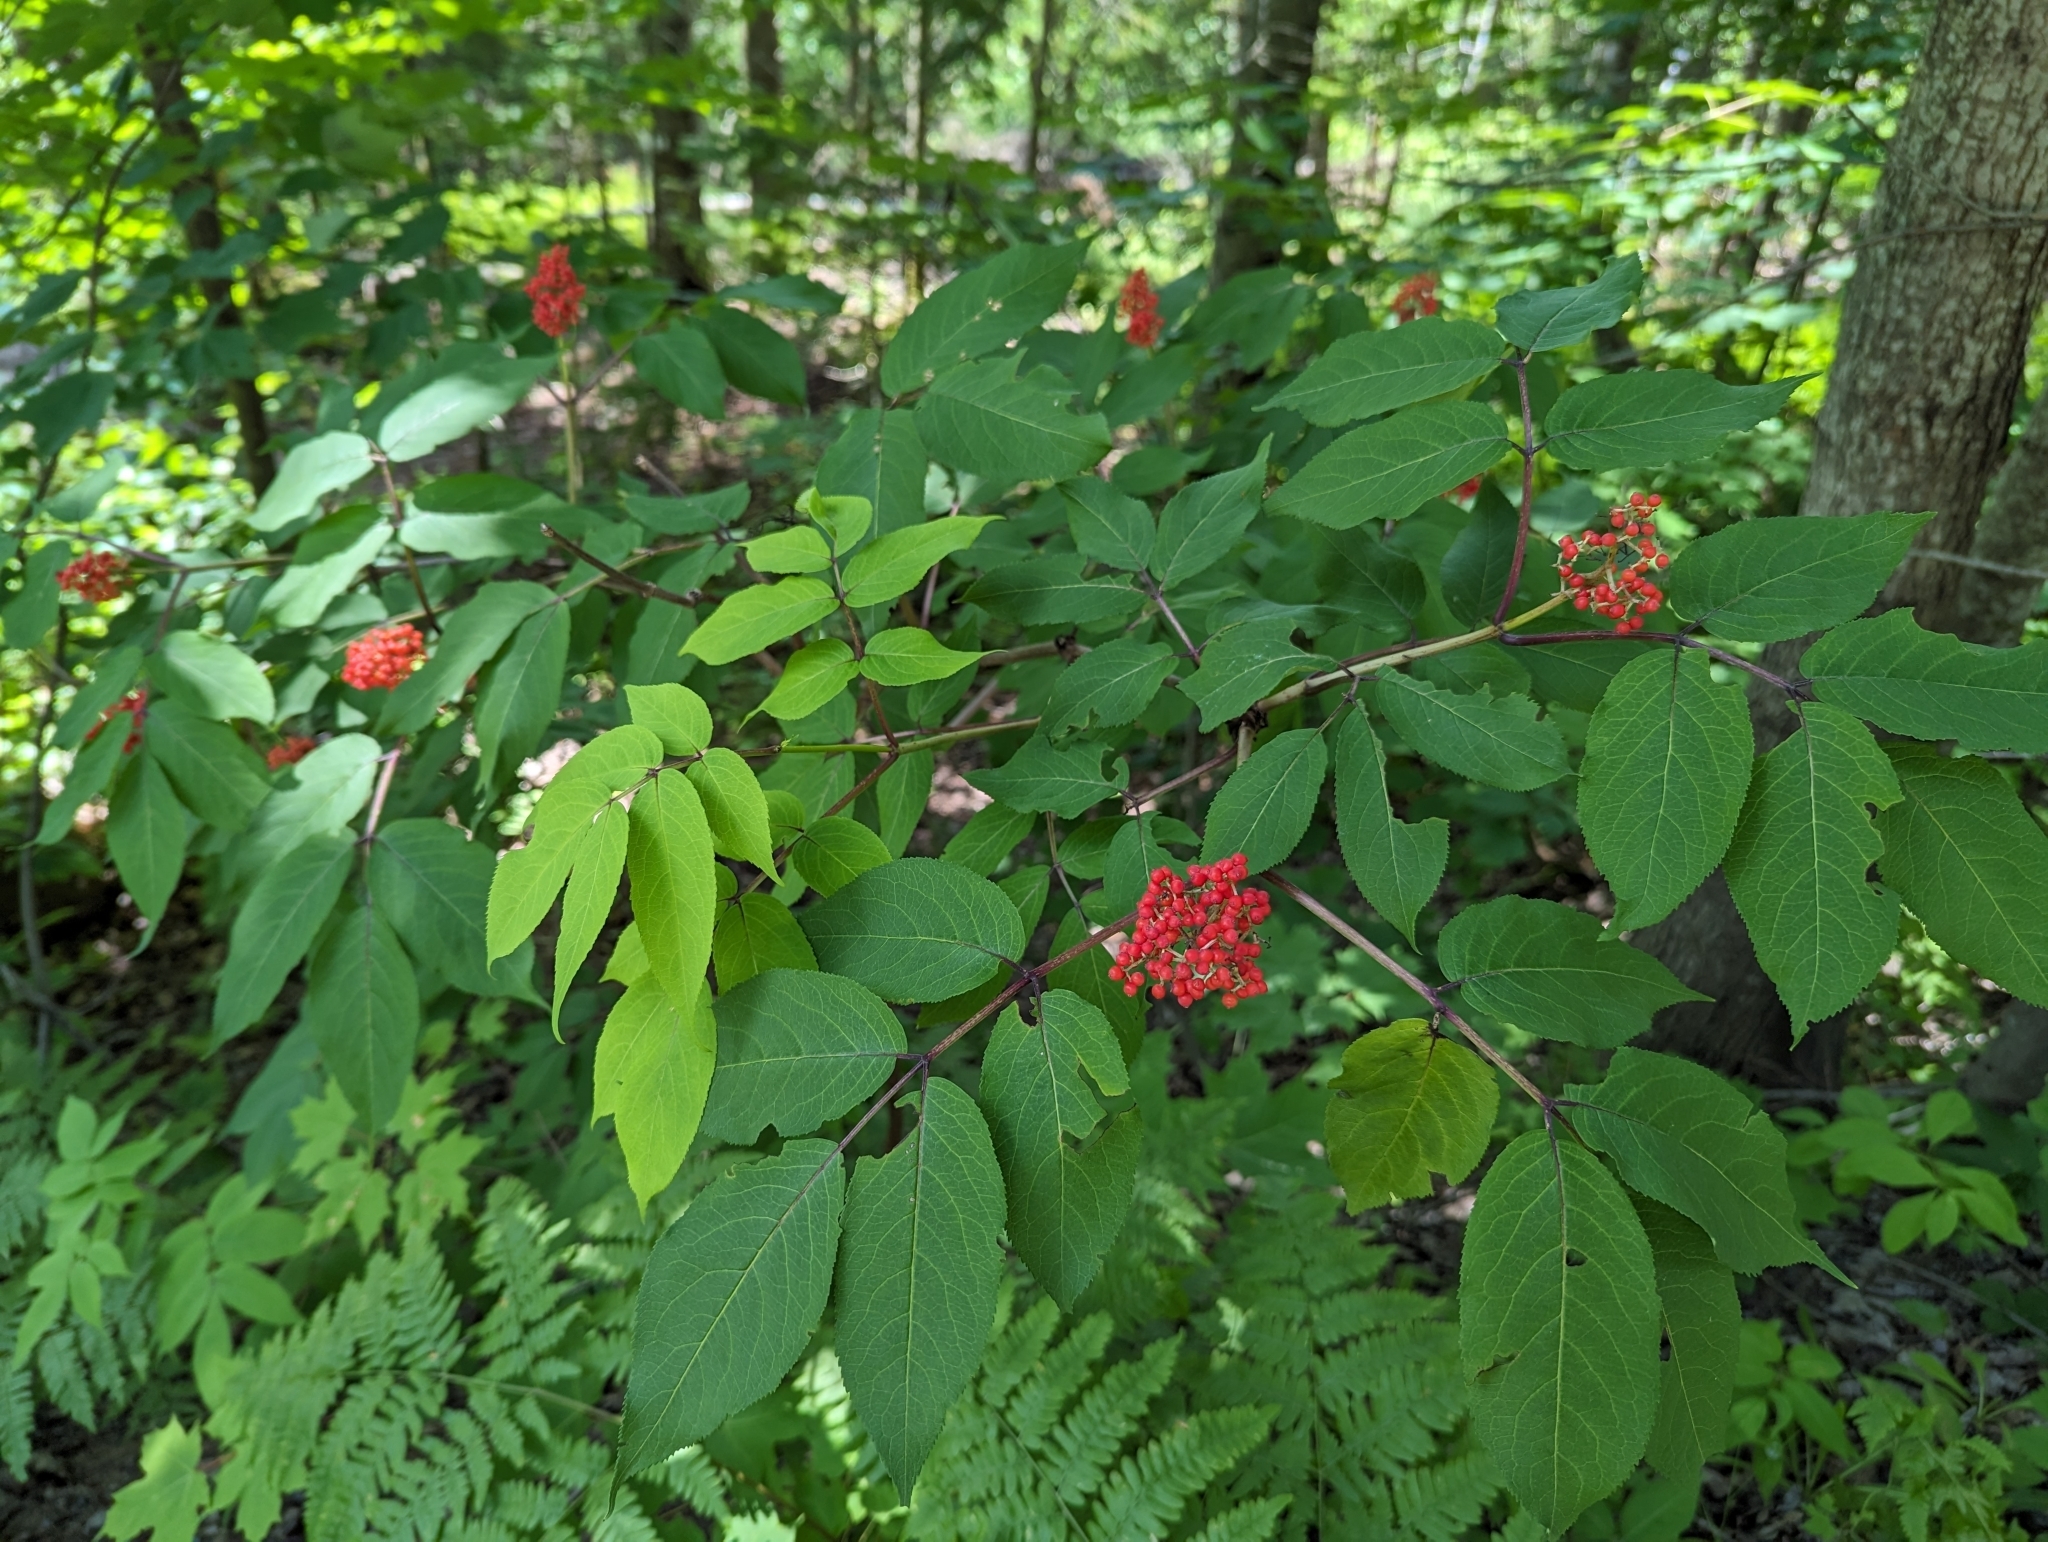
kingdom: Plantae
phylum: Tracheophyta
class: Magnoliopsida
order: Dipsacales
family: Viburnaceae
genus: Sambucus
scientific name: Sambucus racemosa
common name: Red-berried elder
